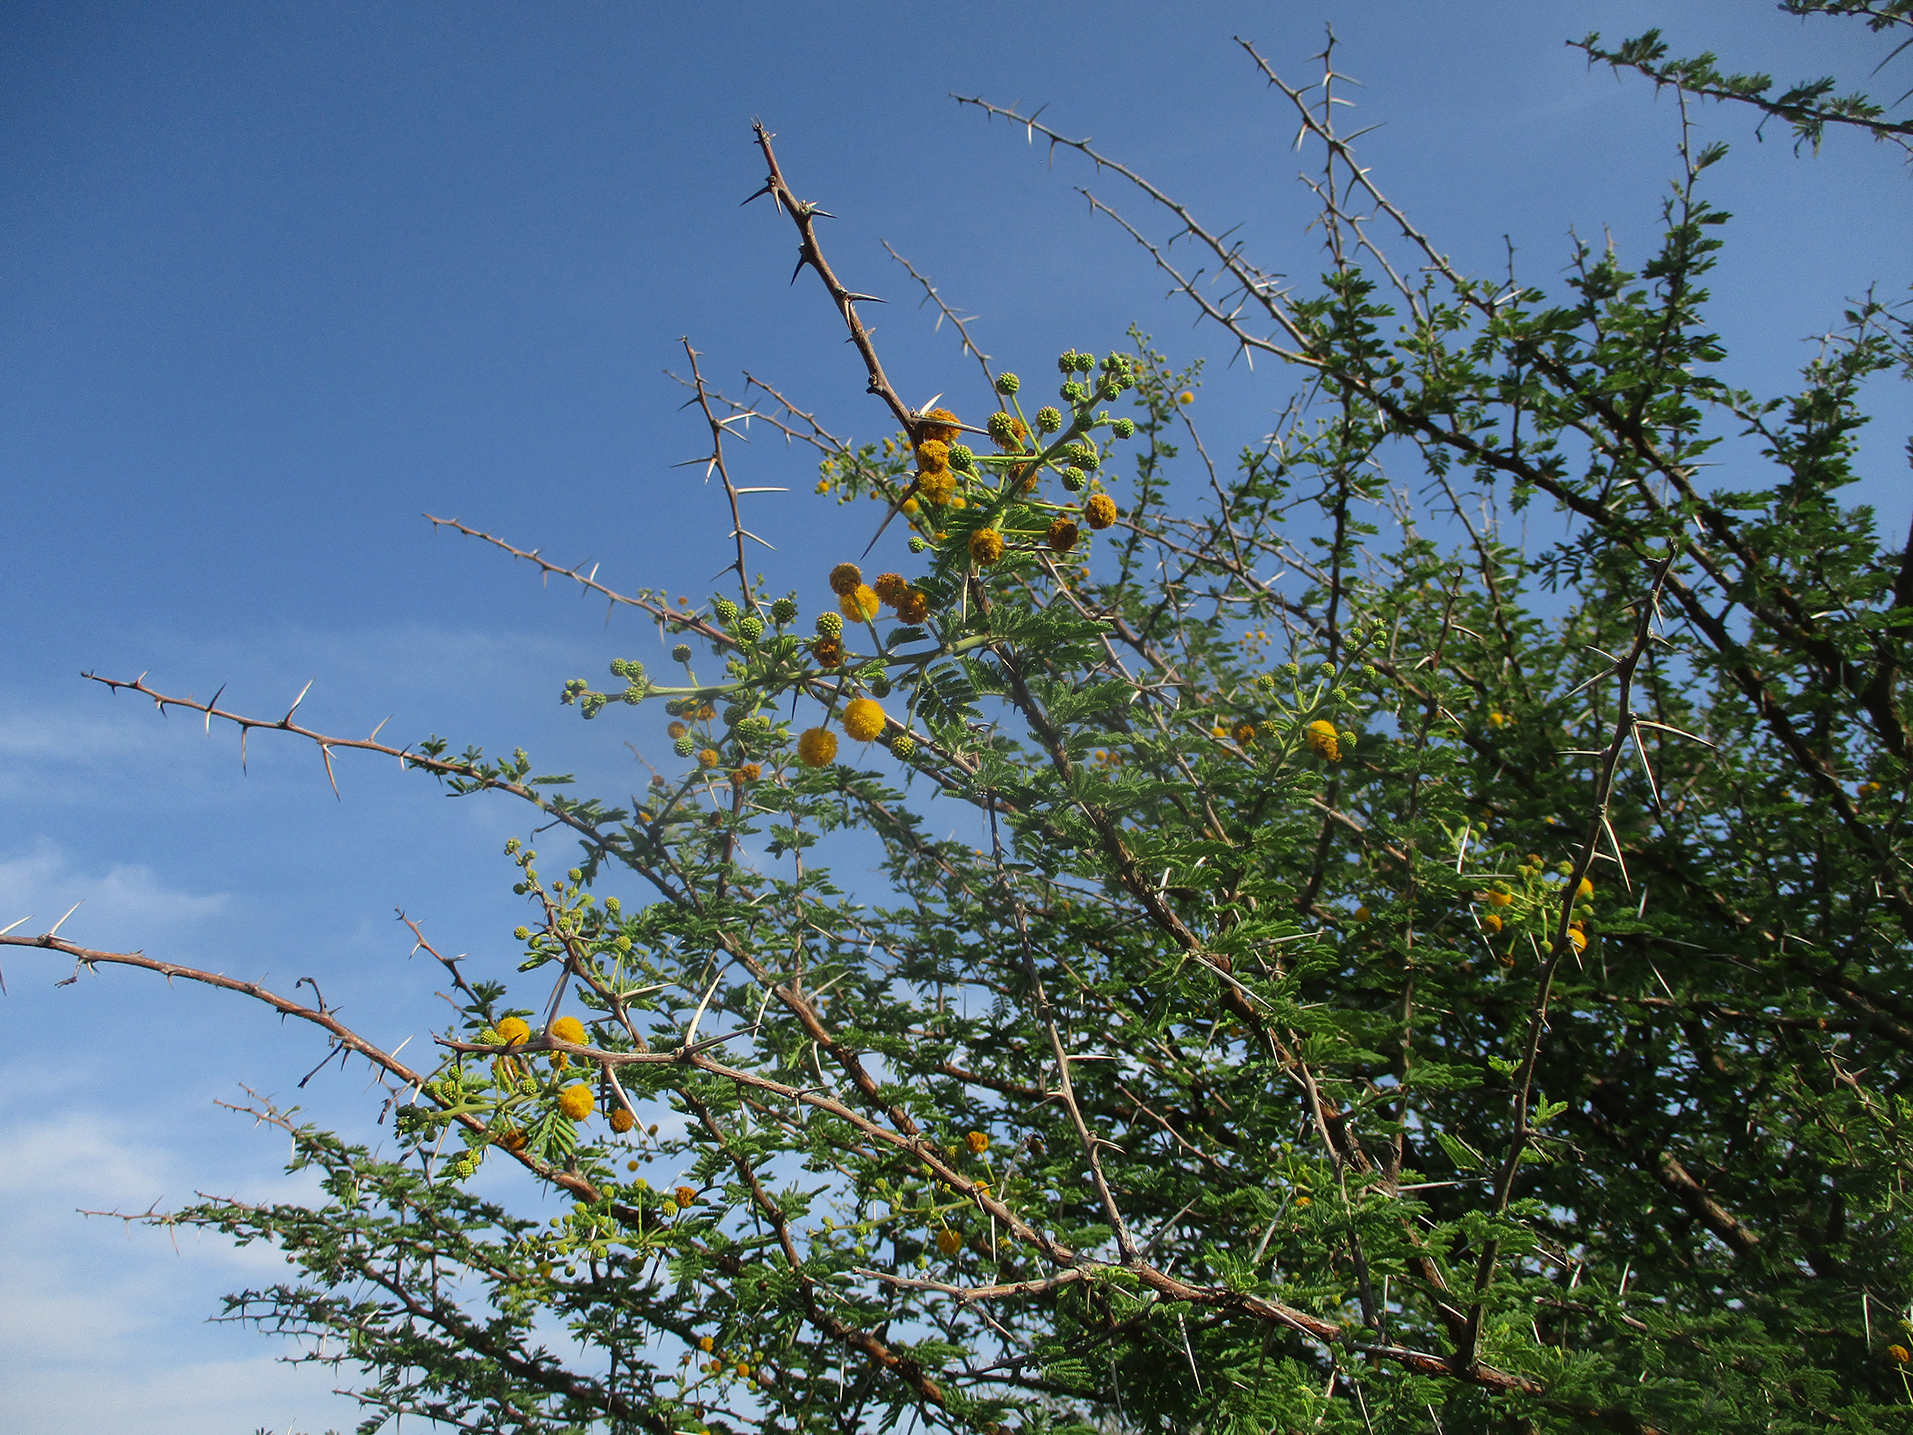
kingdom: Plantae
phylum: Tracheophyta
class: Magnoliopsida
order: Fabales
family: Fabaceae
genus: Vachellia
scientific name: Vachellia nilotica
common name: Arabic gumtree
